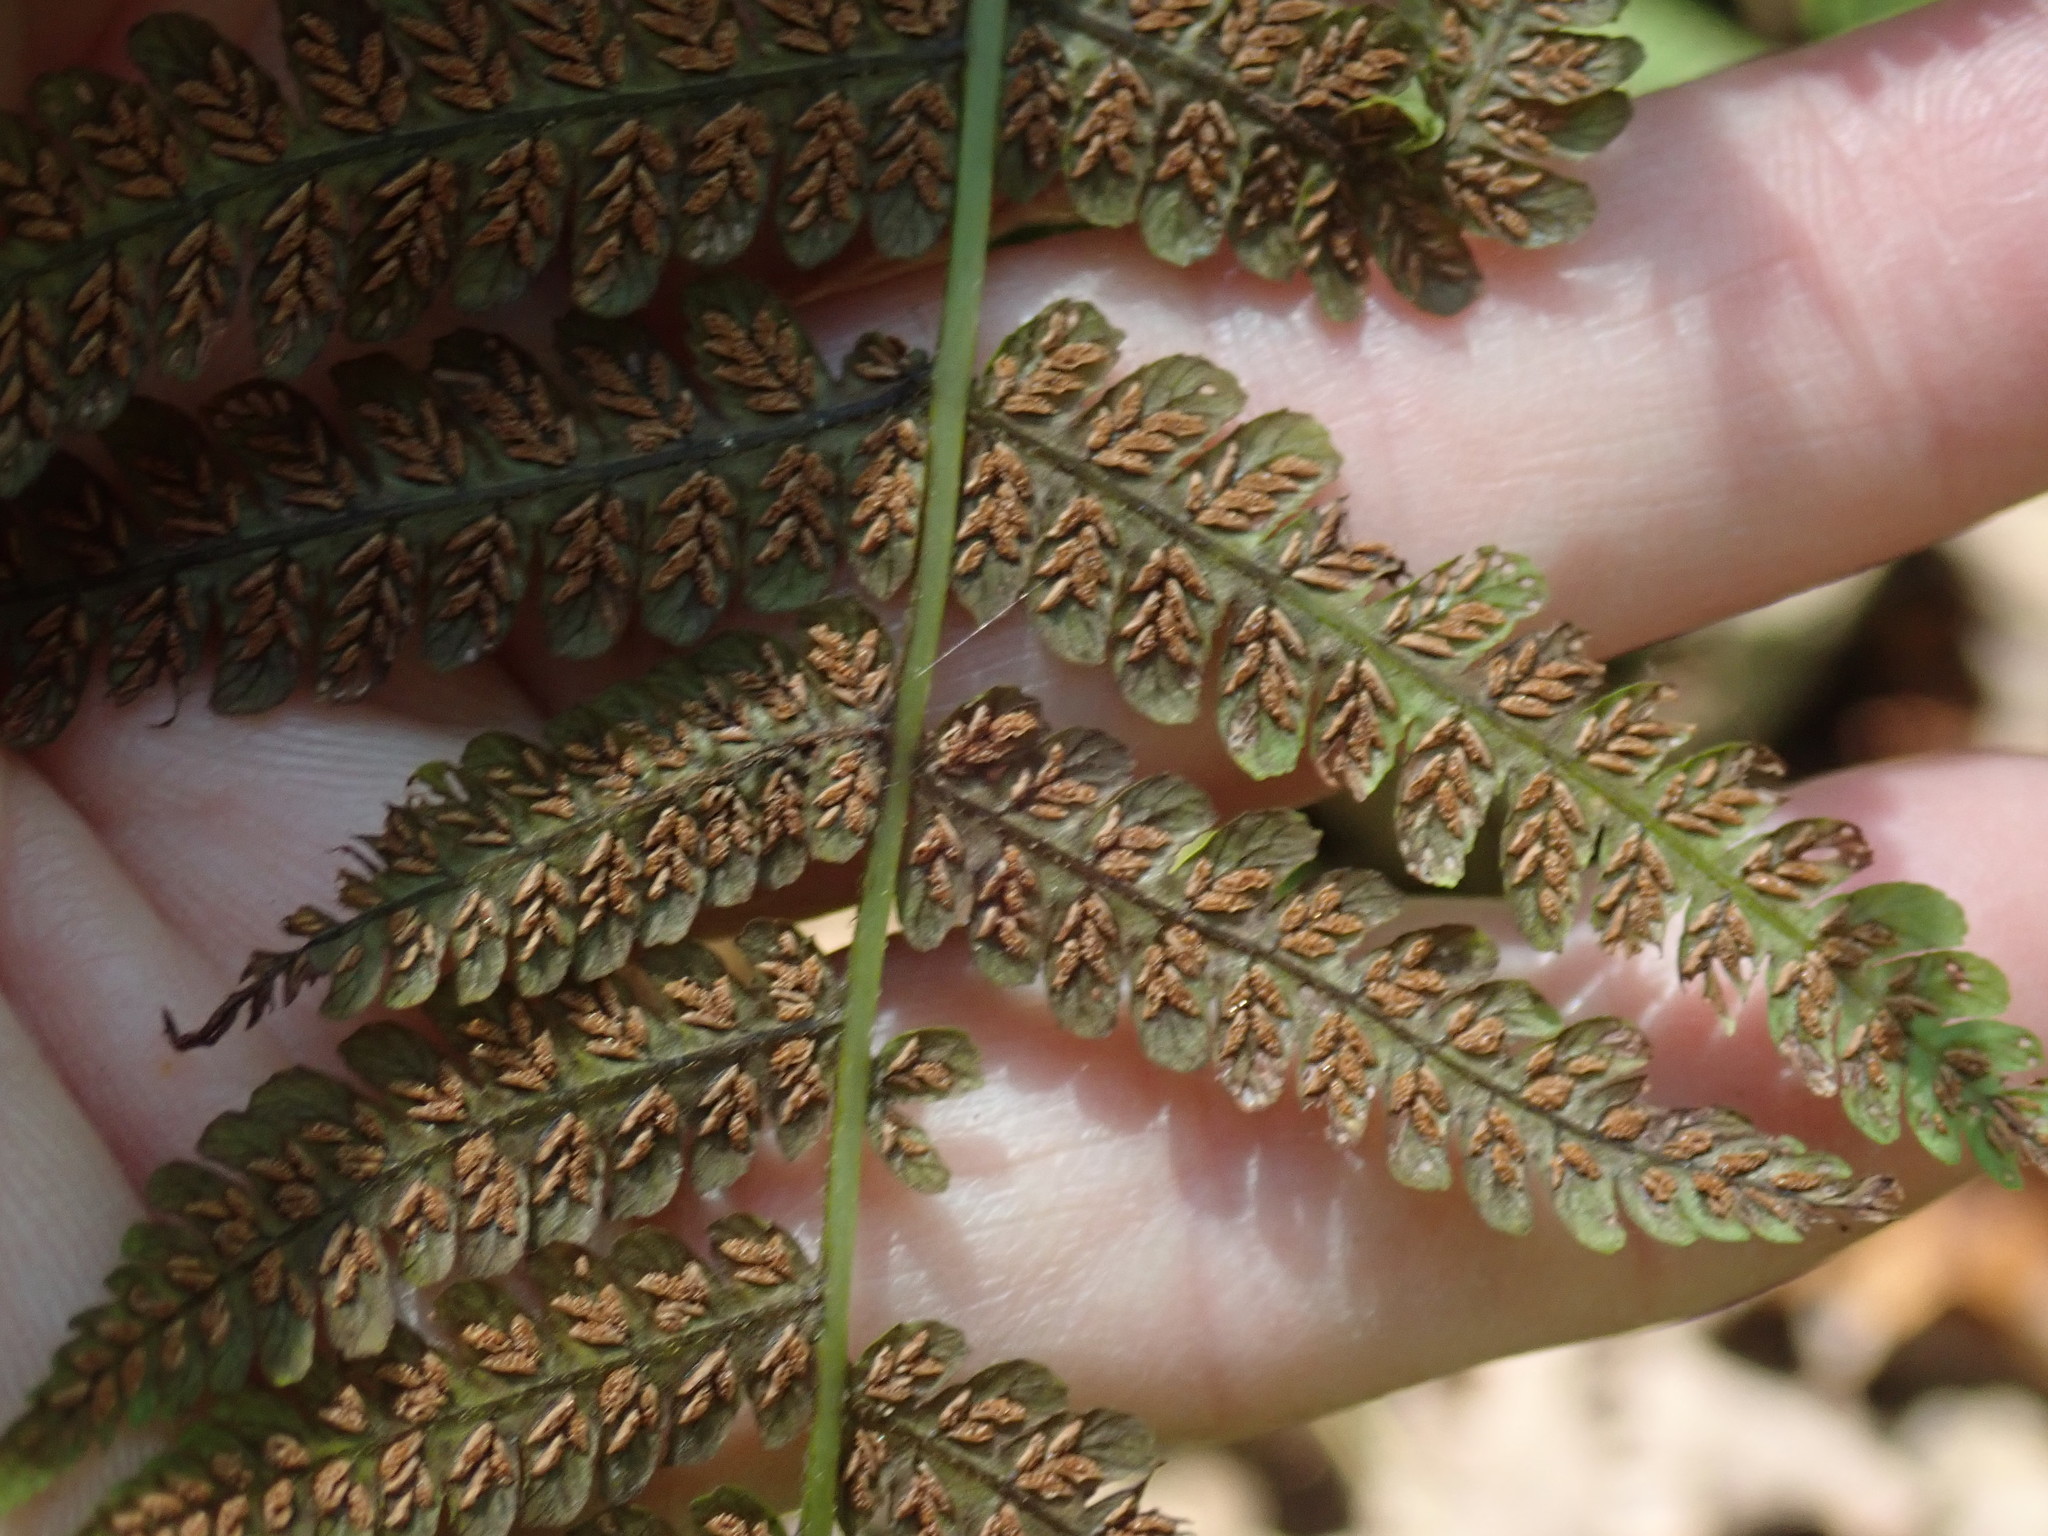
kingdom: Plantae
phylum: Tracheophyta
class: Polypodiopsida
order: Polypodiales
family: Athyriaceae
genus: Deparia
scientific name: Deparia acrostichoides
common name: Silver false spleenwort
